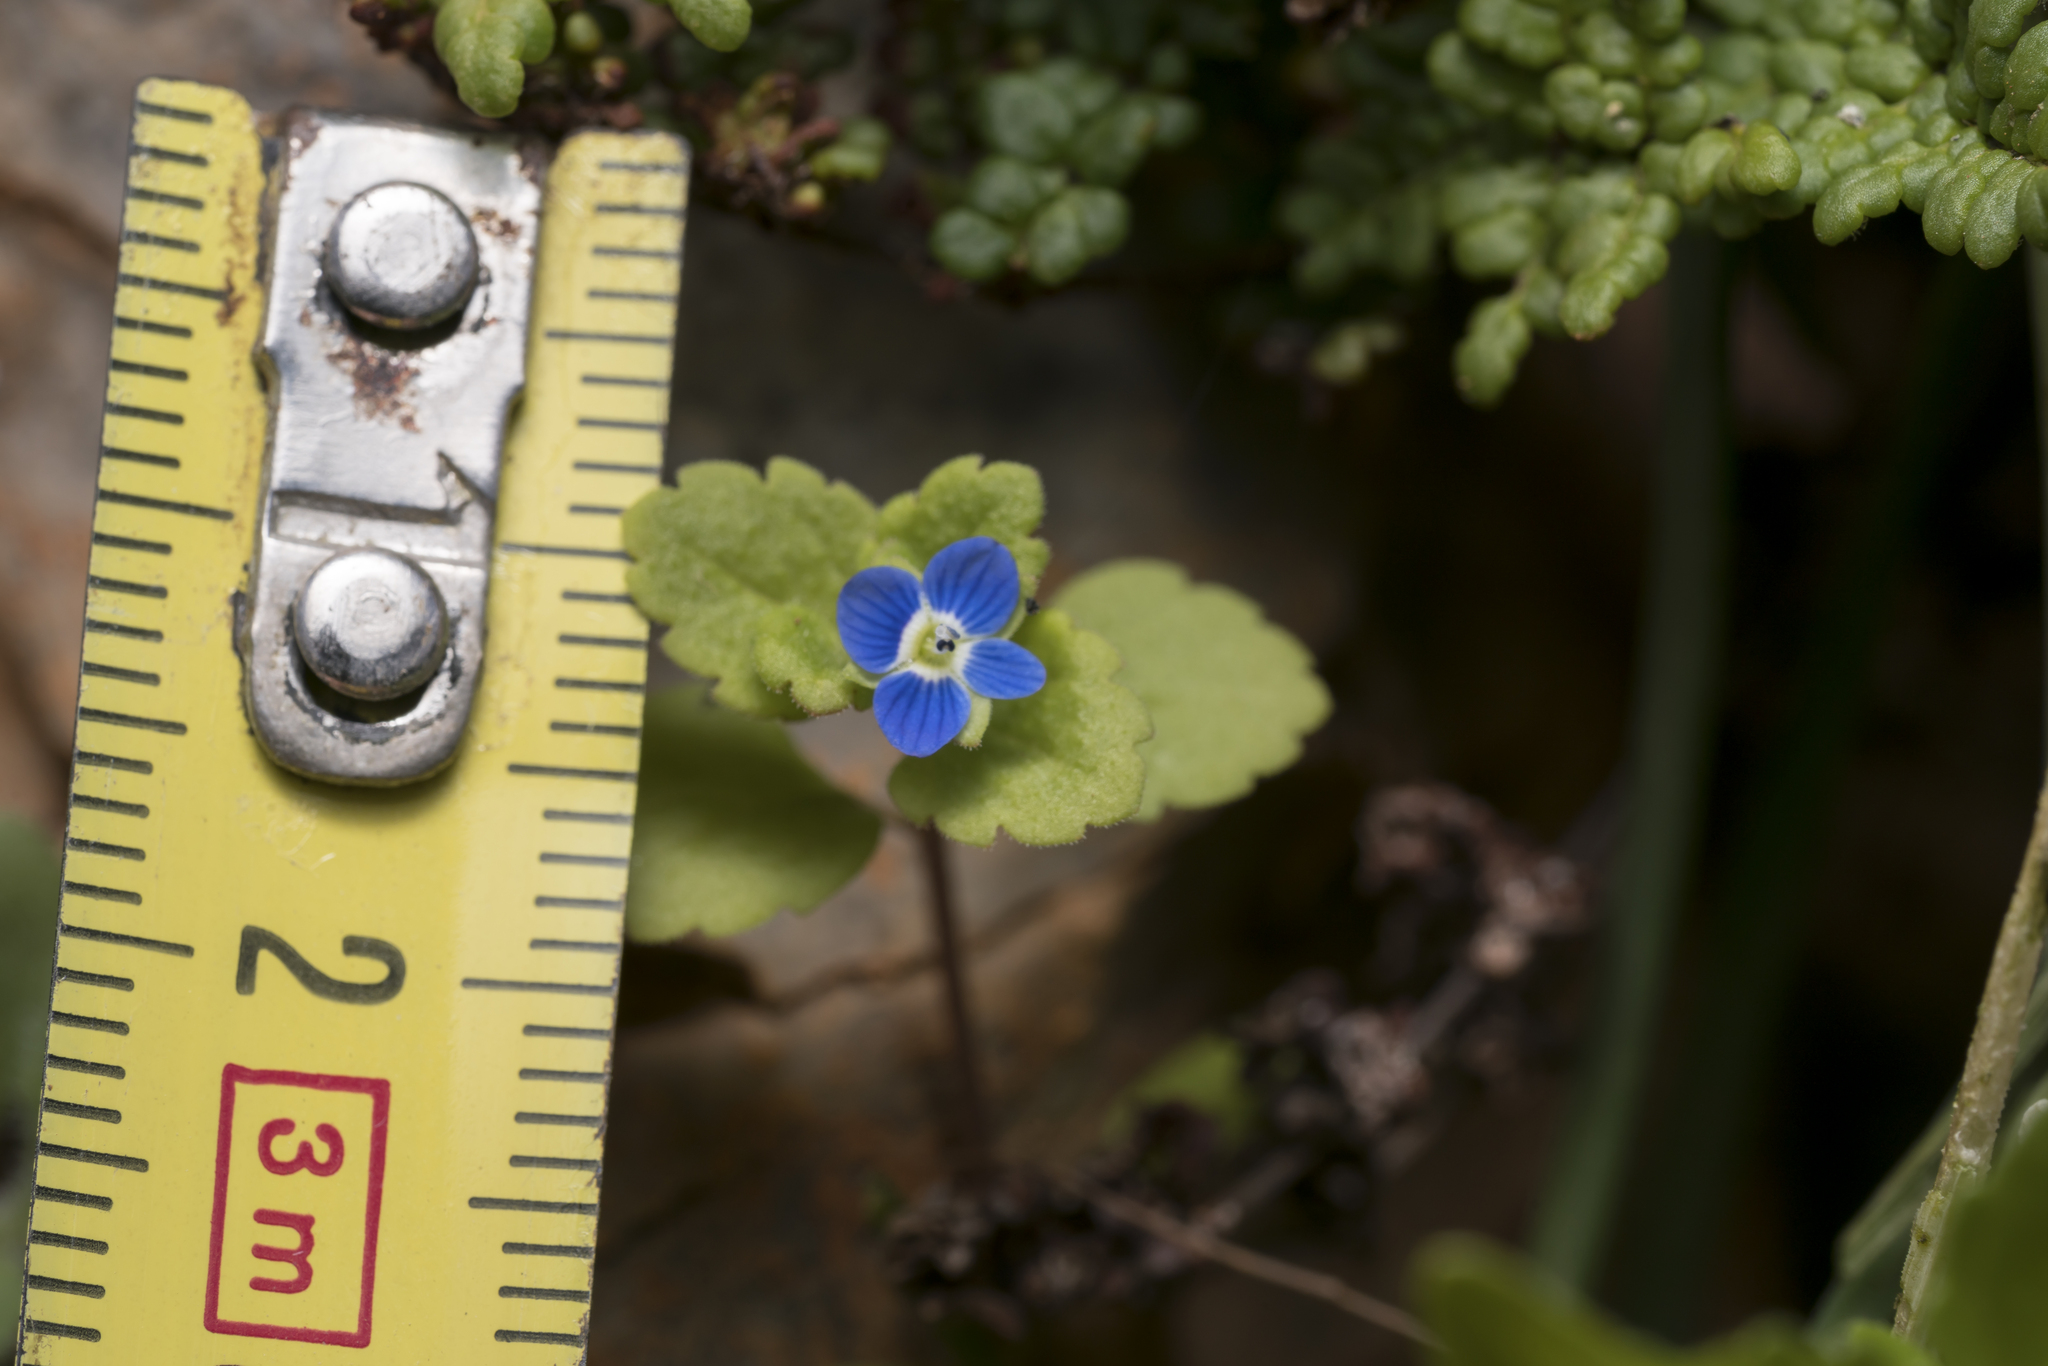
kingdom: Plantae
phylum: Tracheophyta
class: Magnoliopsida
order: Lamiales
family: Plantaginaceae
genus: Veronica
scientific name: Veronica polita
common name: Grey field-speedwell
